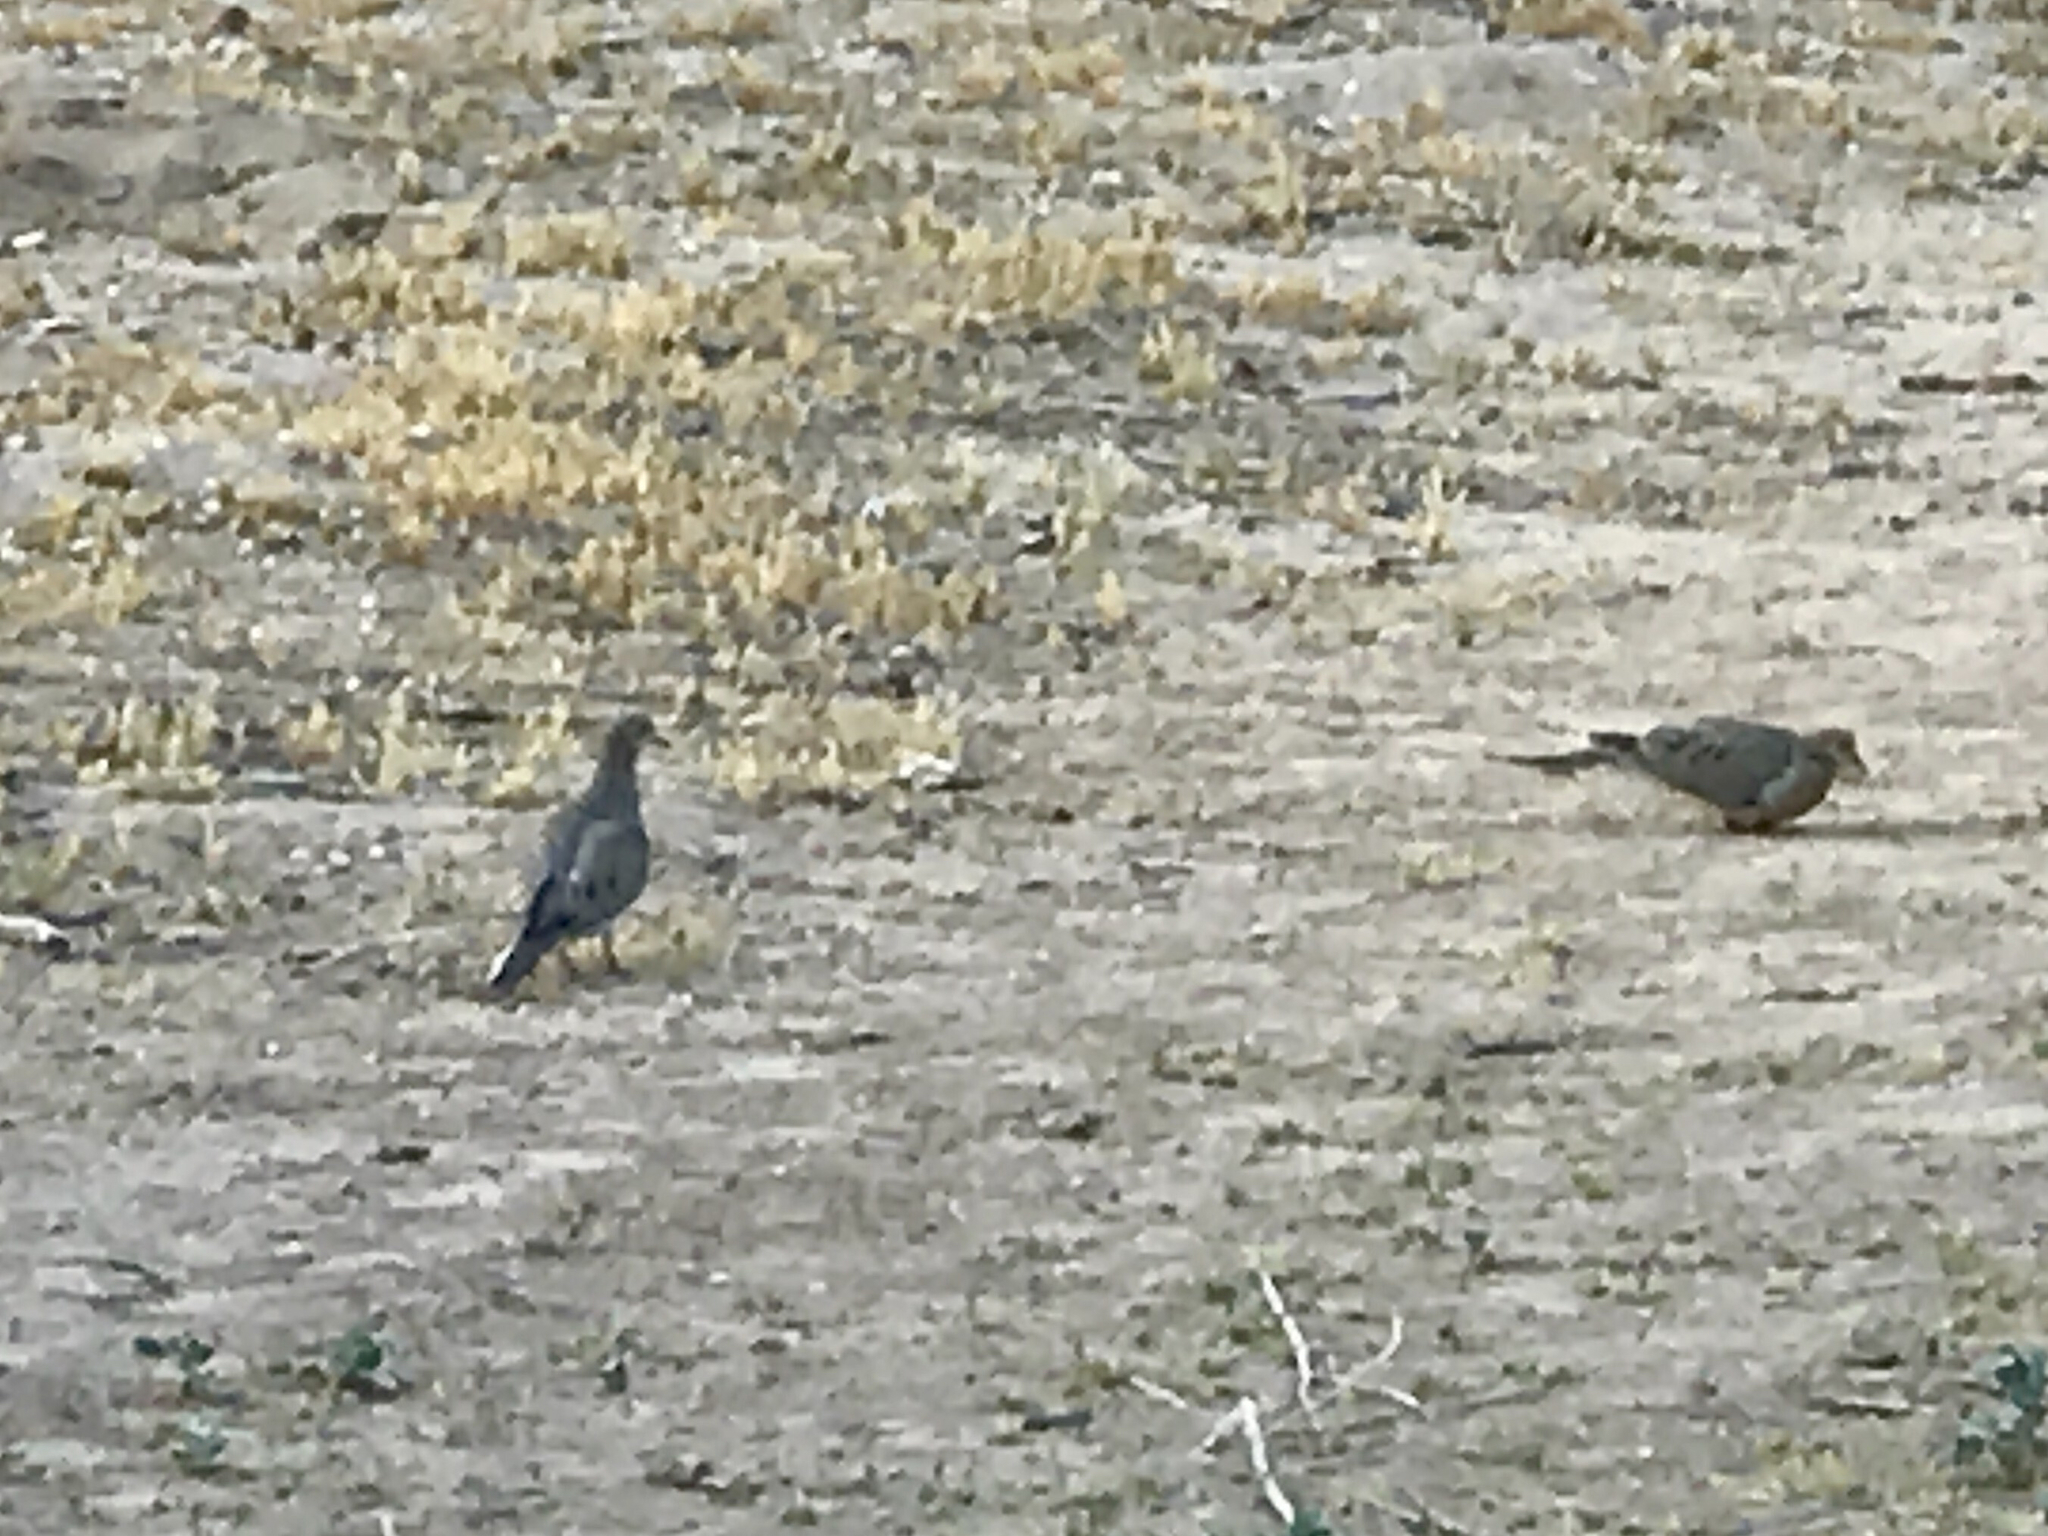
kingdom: Animalia
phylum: Chordata
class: Aves
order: Columbiformes
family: Columbidae
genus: Zenaida
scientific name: Zenaida macroura
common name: Mourning dove
